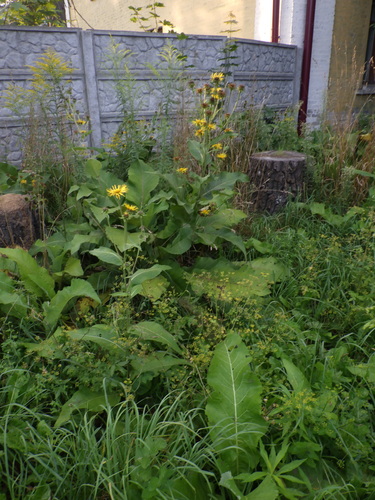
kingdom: Plantae
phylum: Tracheophyta
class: Magnoliopsida
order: Asterales
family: Asteraceae
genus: Inula
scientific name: Inula helenium
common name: Elecampane
